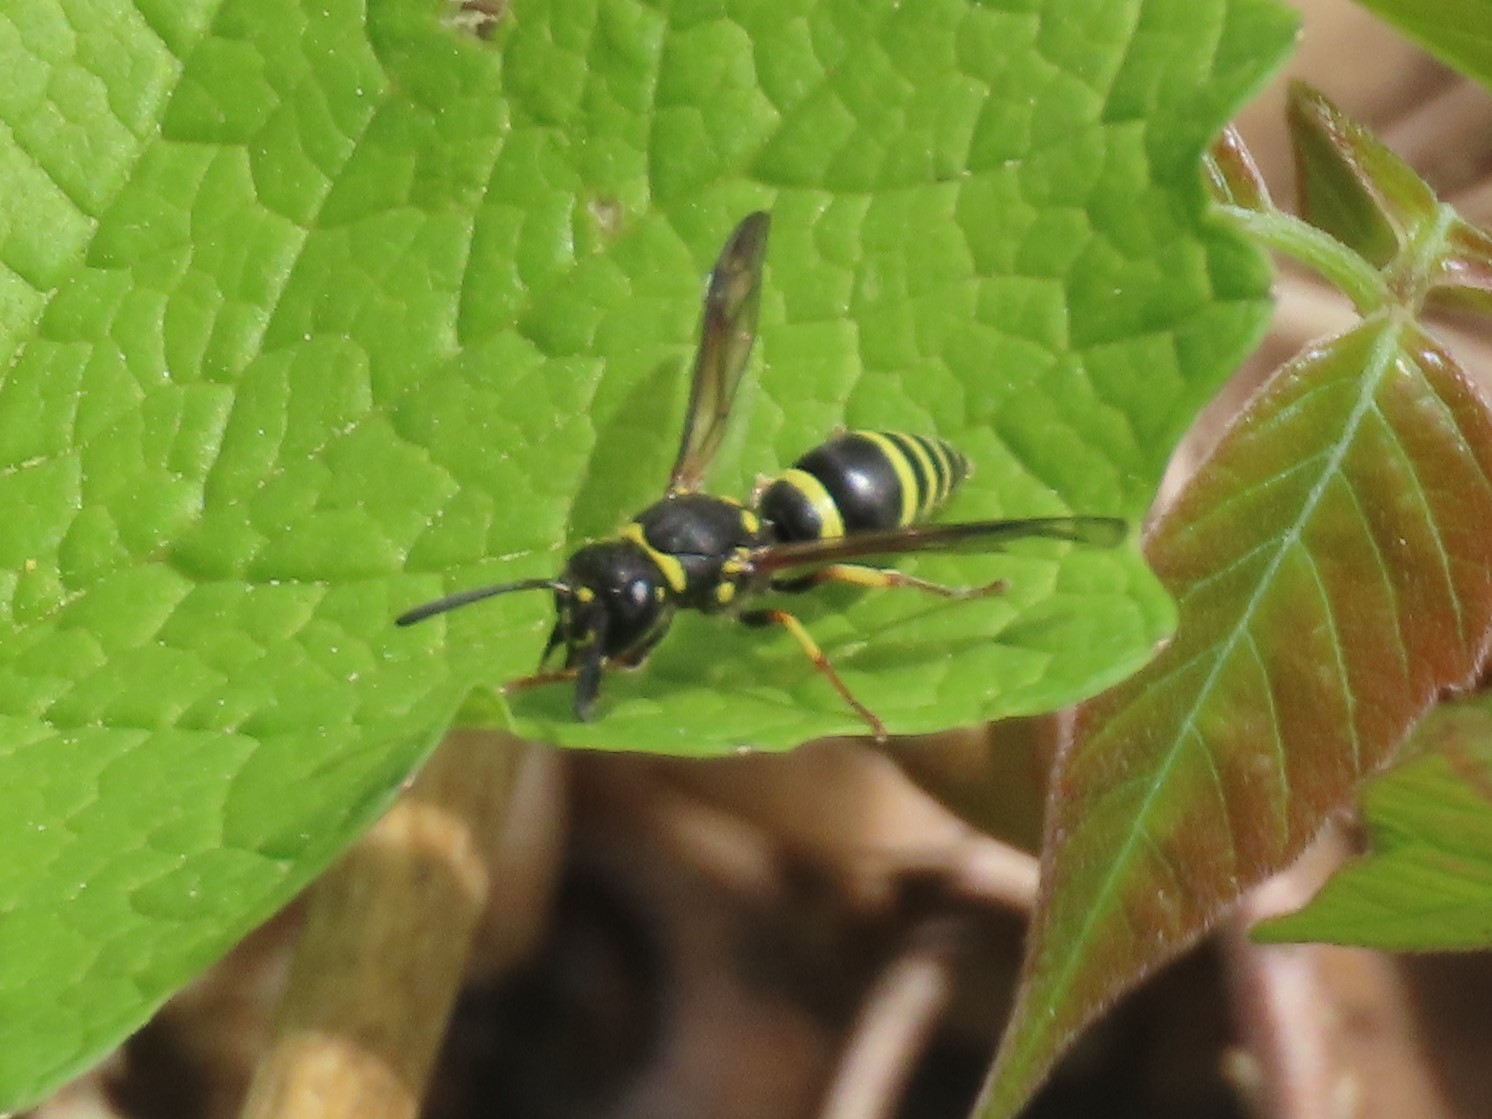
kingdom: Animalia
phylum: Arthropoda
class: Insecta
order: Hymenoptera
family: Vespidae
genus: Ancistrocerus
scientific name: Ancistrocerus
